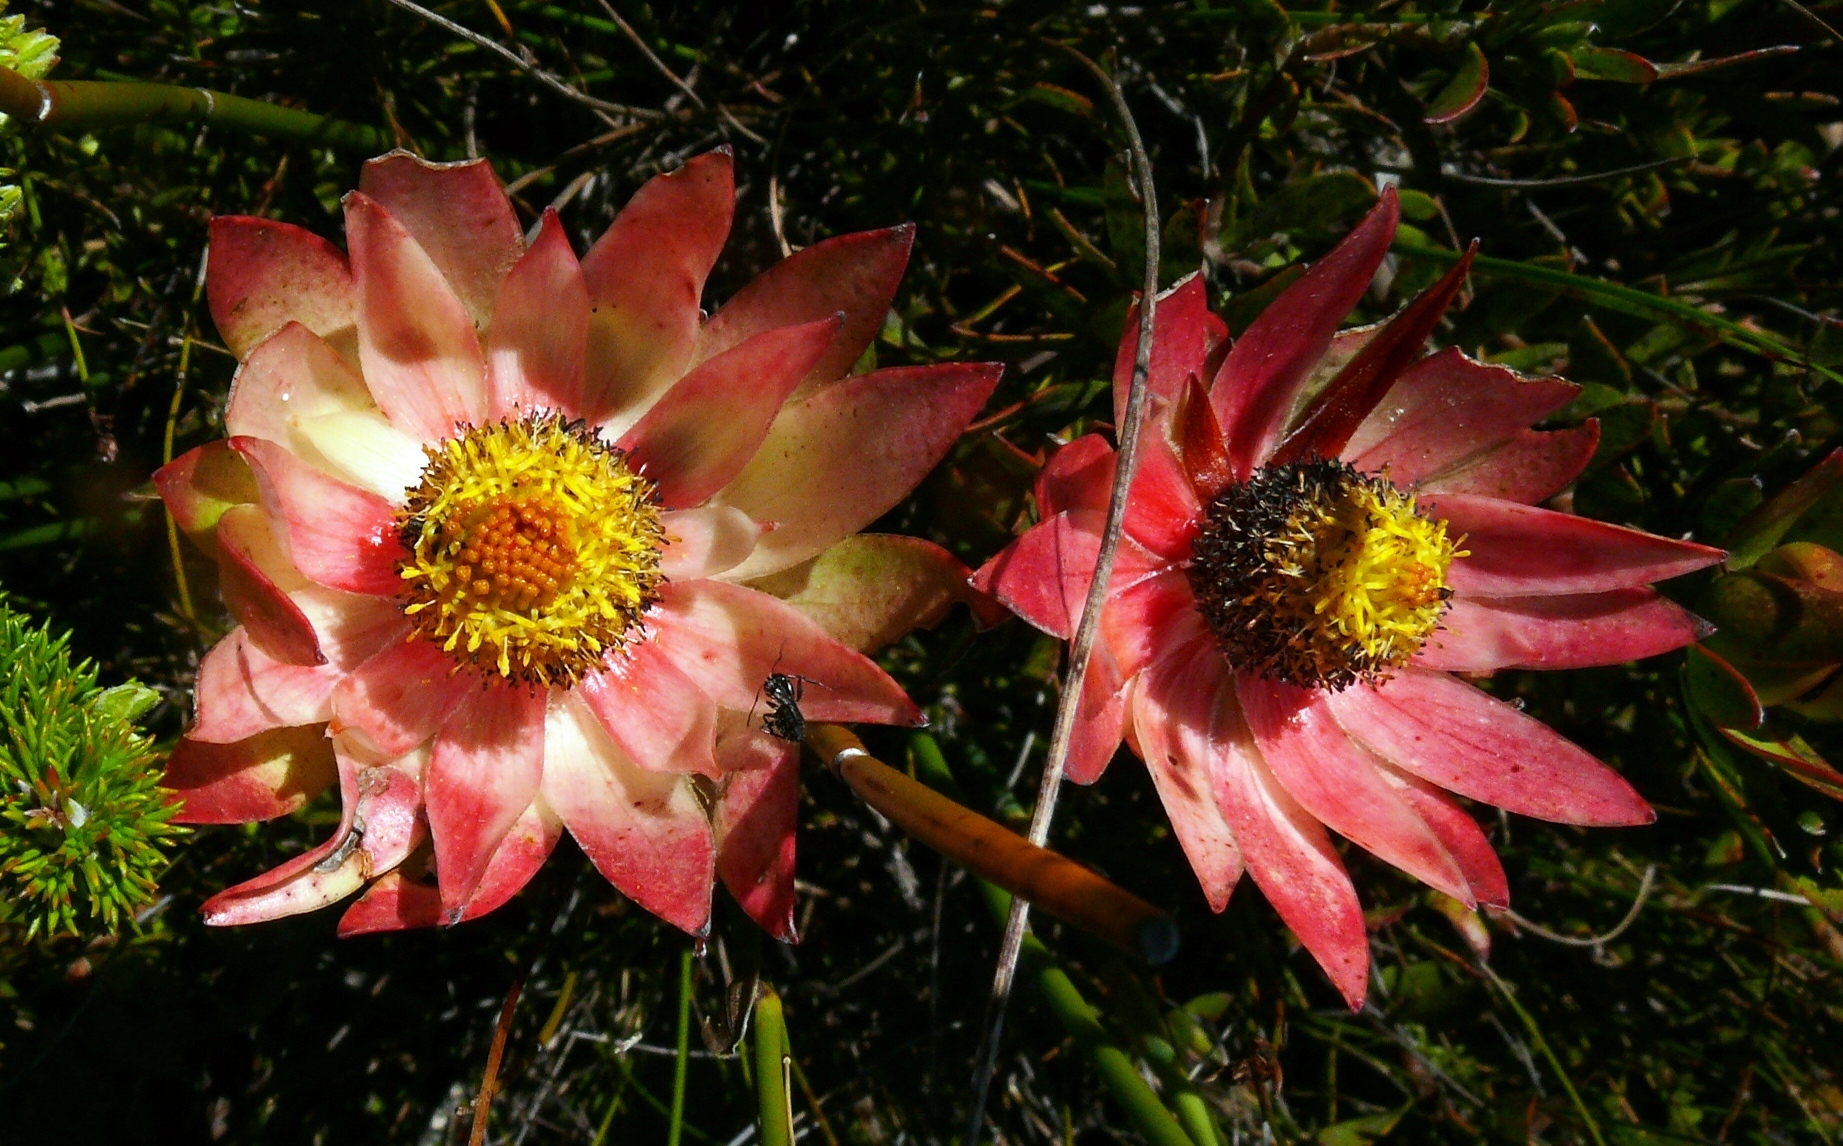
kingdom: Plantae
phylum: Tracheophyta
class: Magnoliopsida
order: Proteales
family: Proteaceae
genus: Leucadendron
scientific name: Leucadendron spissifolium
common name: Spear-leaf conebush
